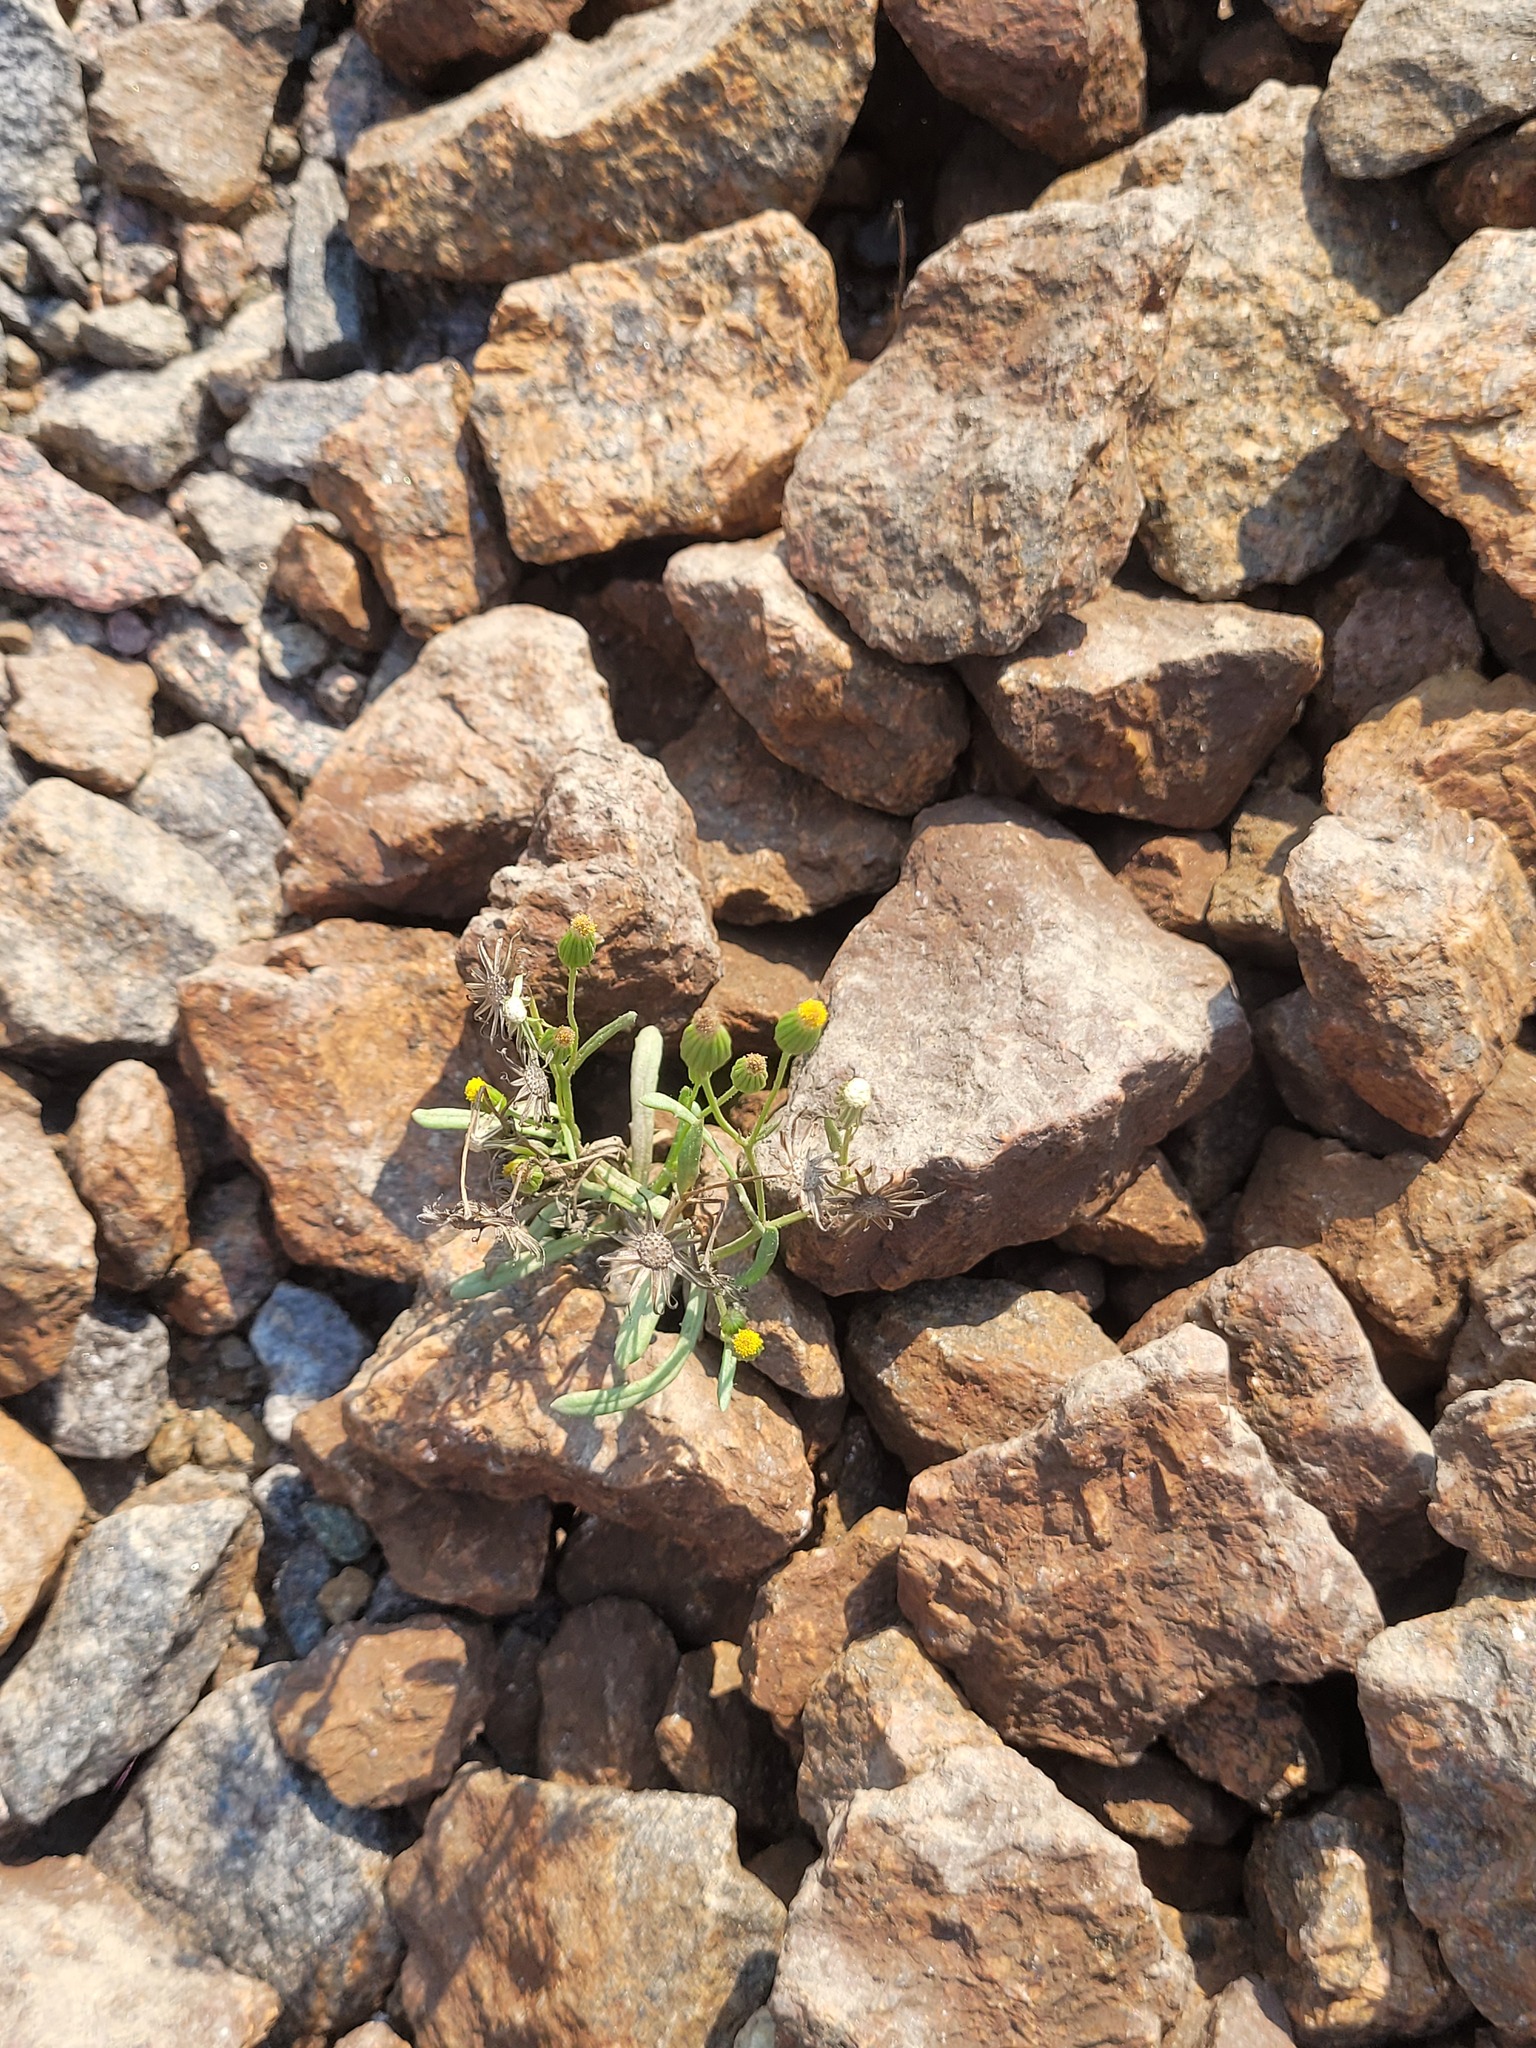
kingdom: Plantae
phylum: Tracheophyta
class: Magnoliopsida
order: Asterales
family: Asteraceae
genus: Senecio
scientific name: Senecio dubitabilis
